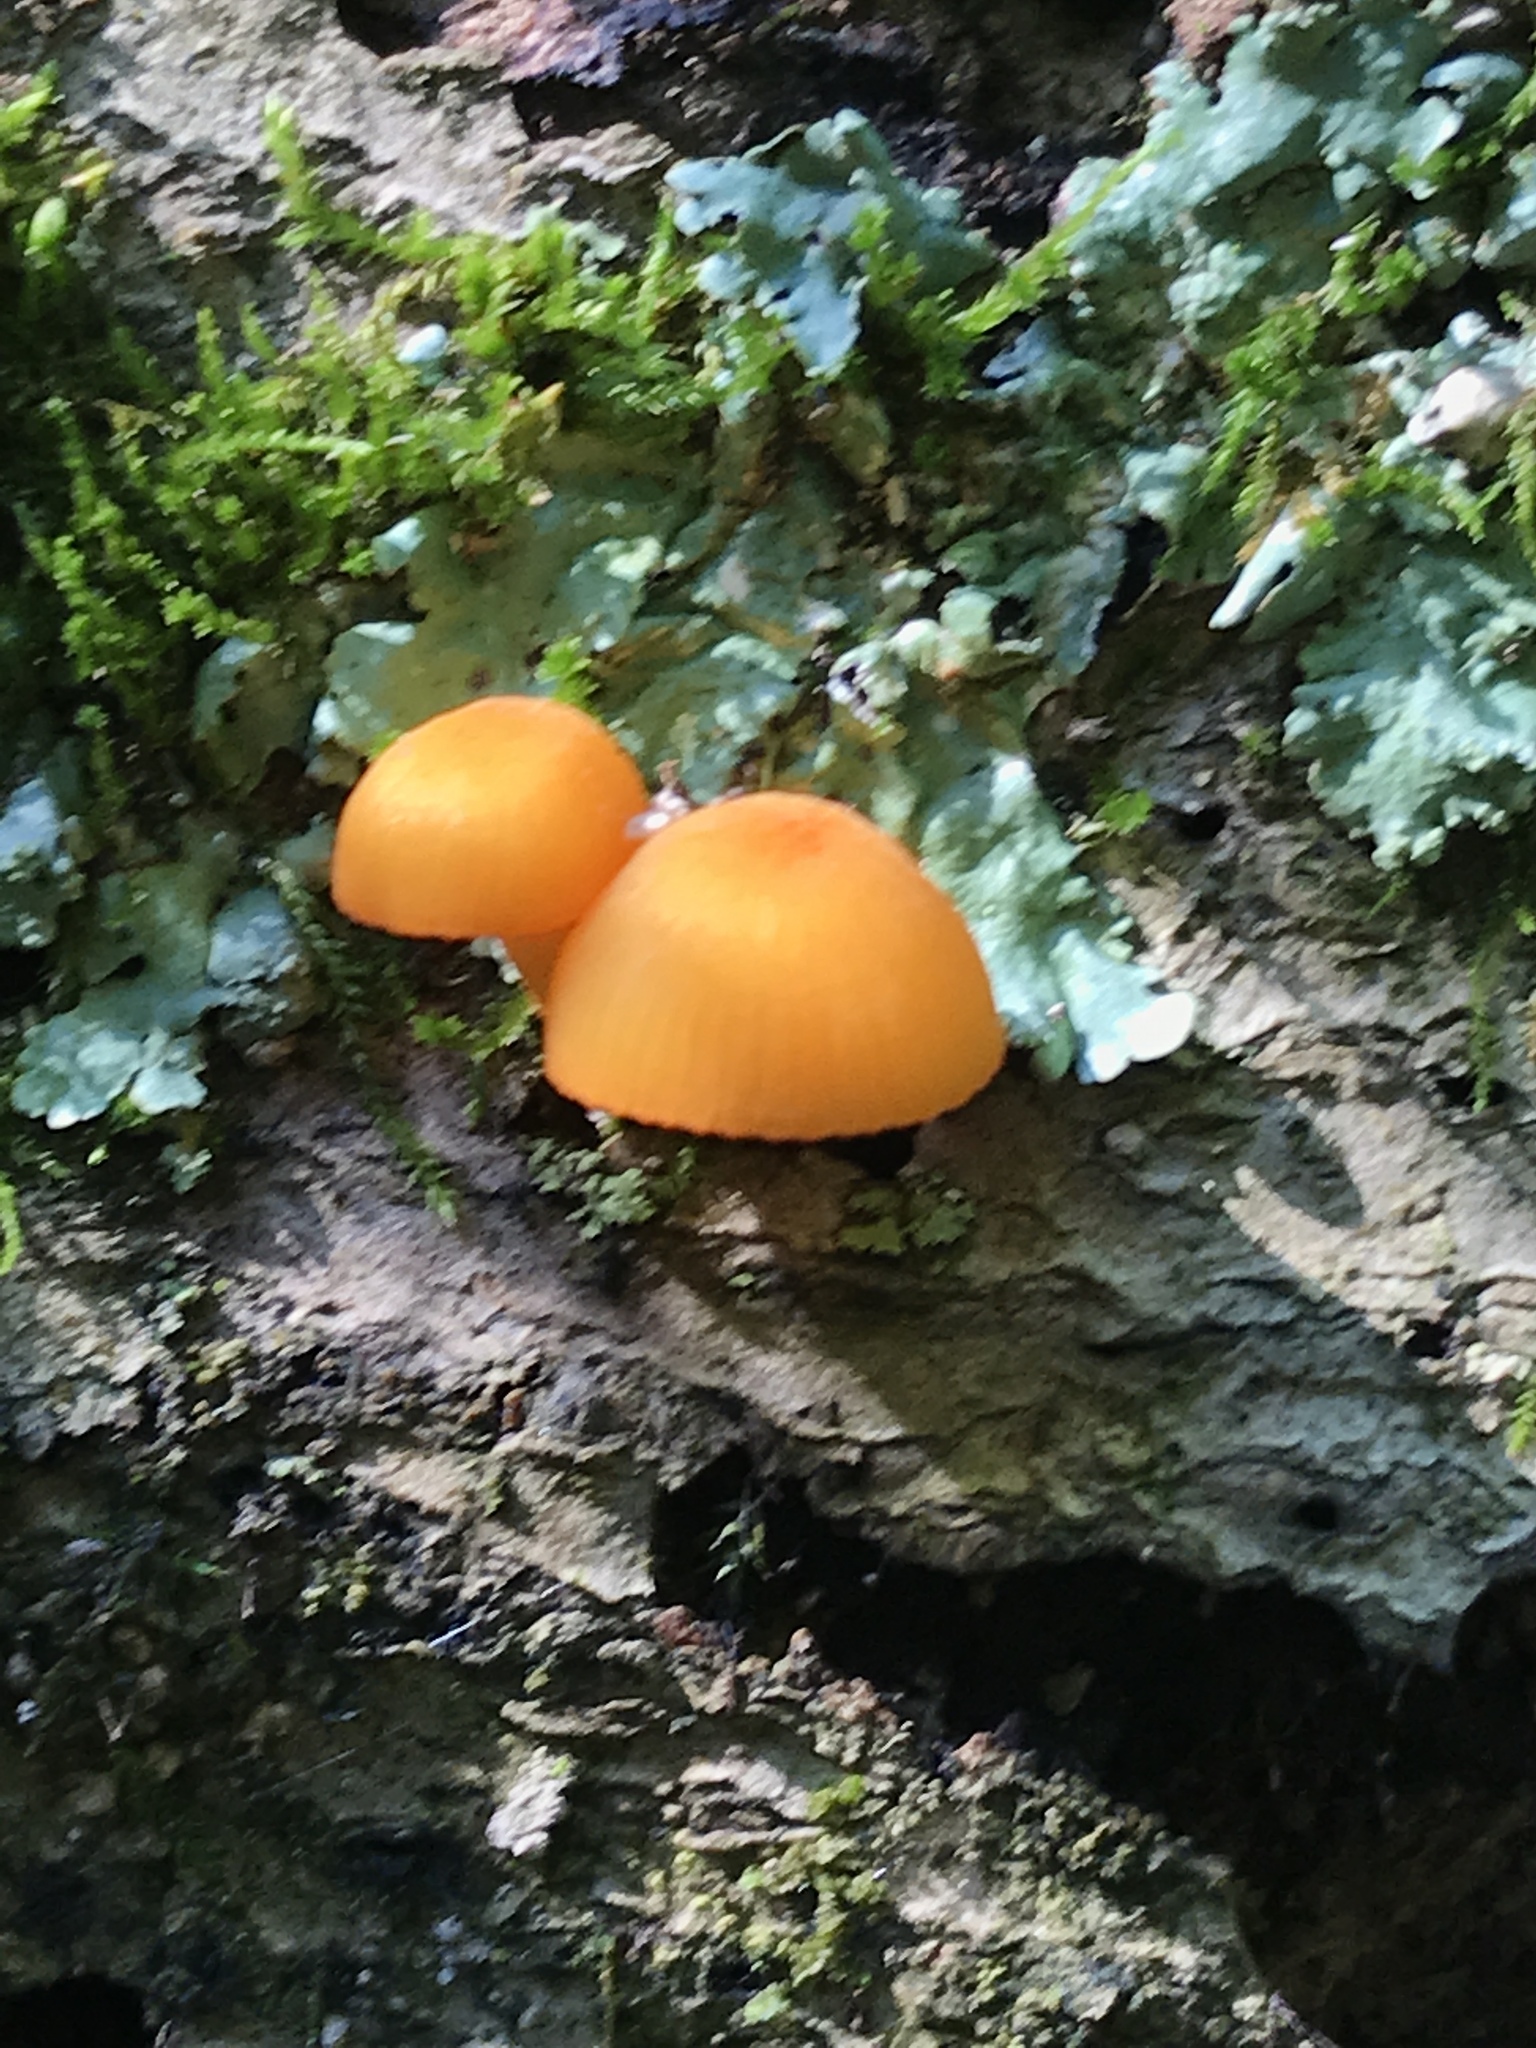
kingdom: Fungi
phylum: Basidiomycota
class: Agaricomycetes
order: Agaricales
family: Mycenaceae
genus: Mycena
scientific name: Mycena leaiana
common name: Orange mycena
